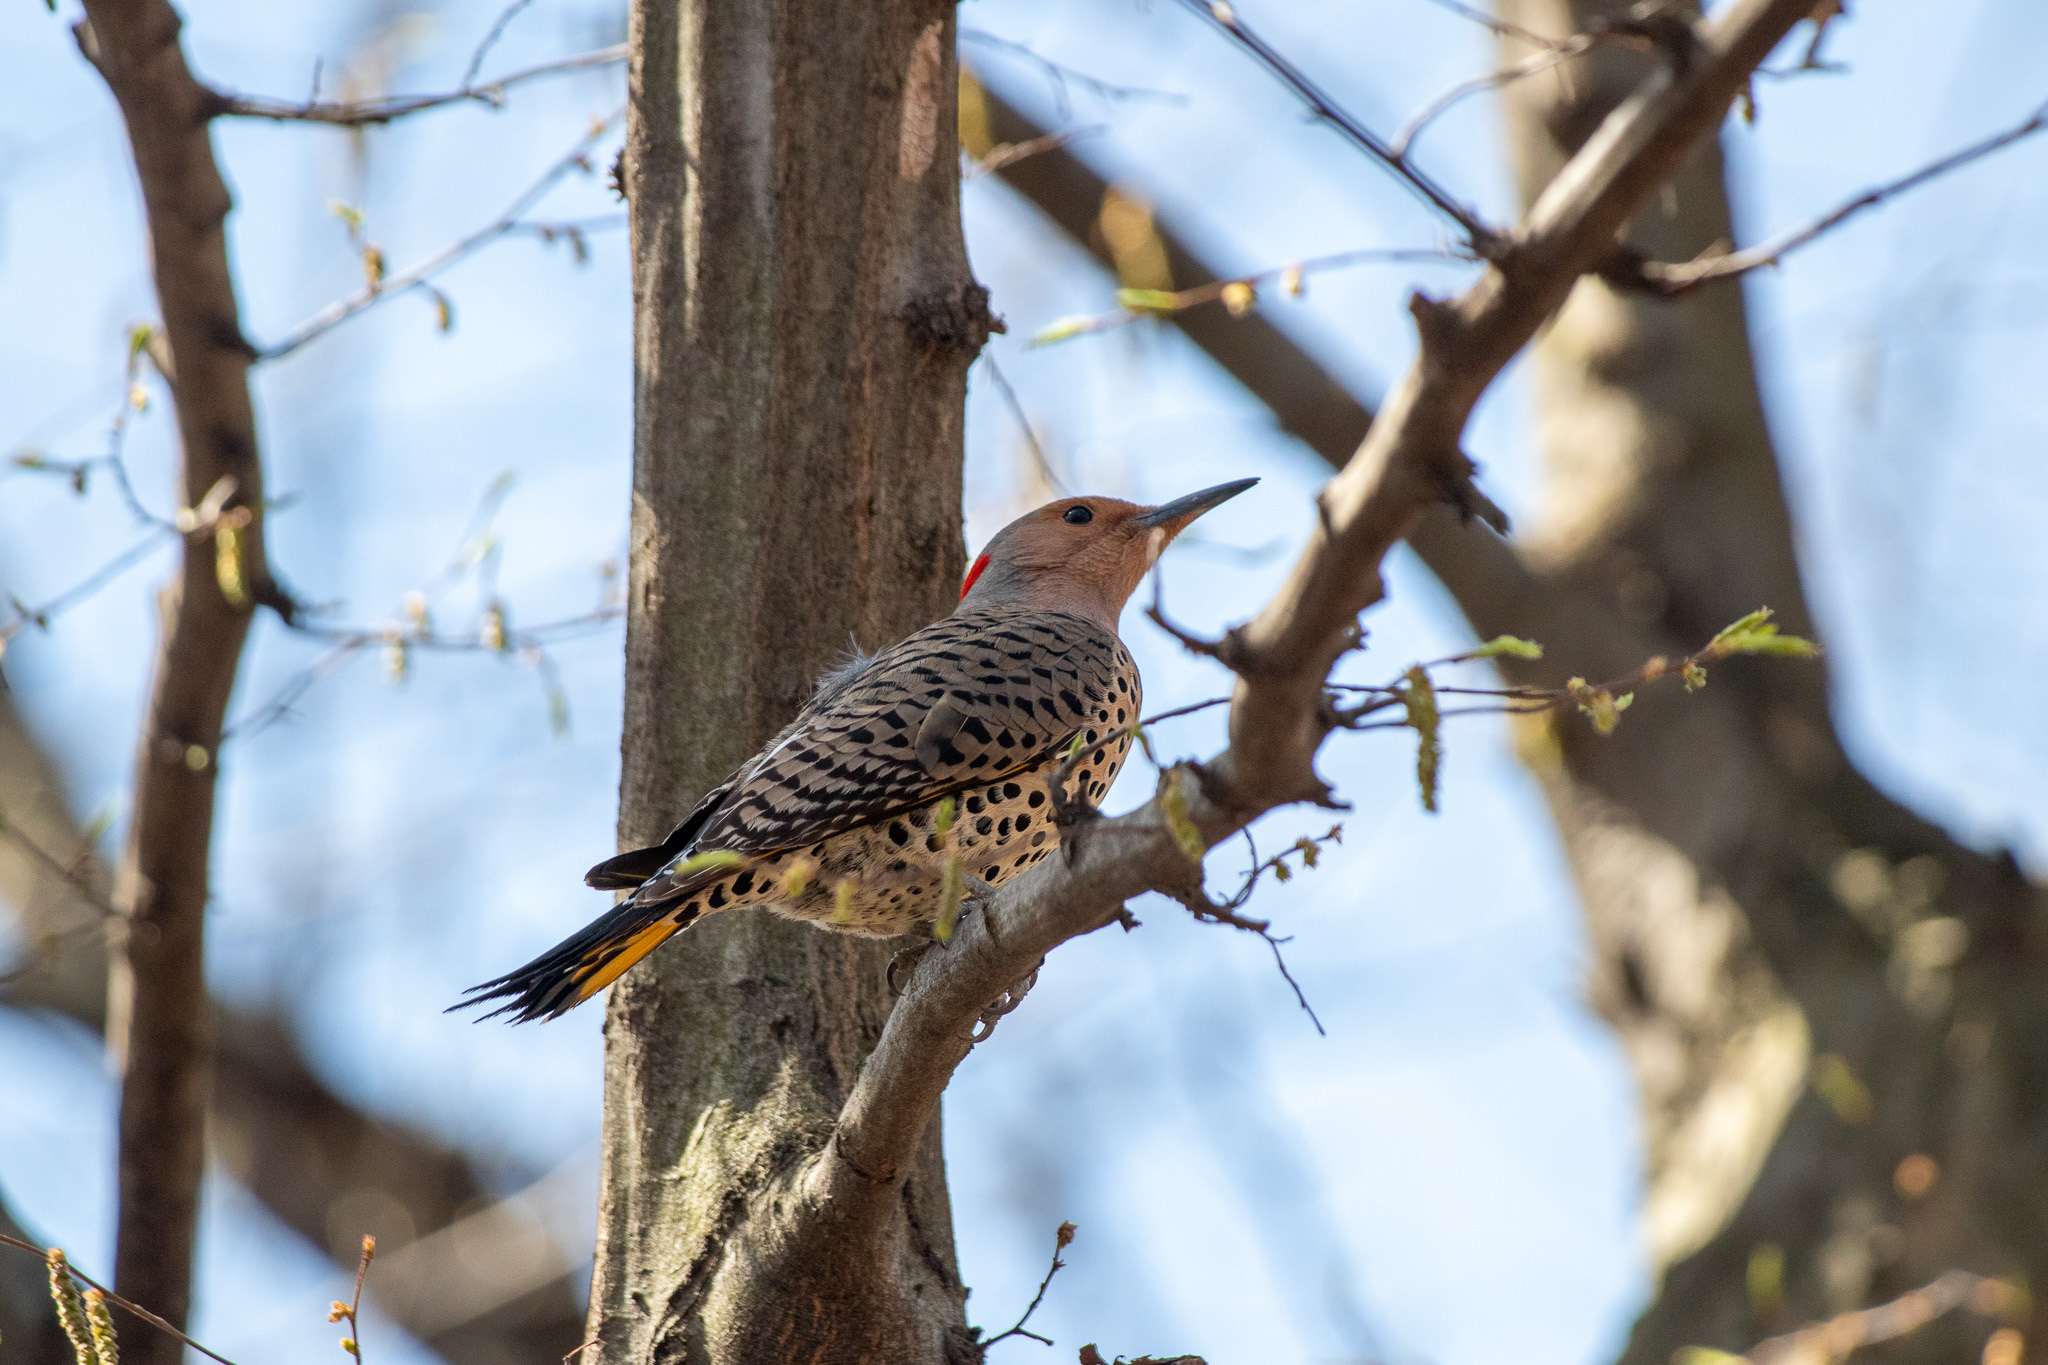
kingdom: Animalia
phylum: Chordata
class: Aves
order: Piciformes
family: Picidae
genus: Colaptes
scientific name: Colaptes auratus
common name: Northern flicker
